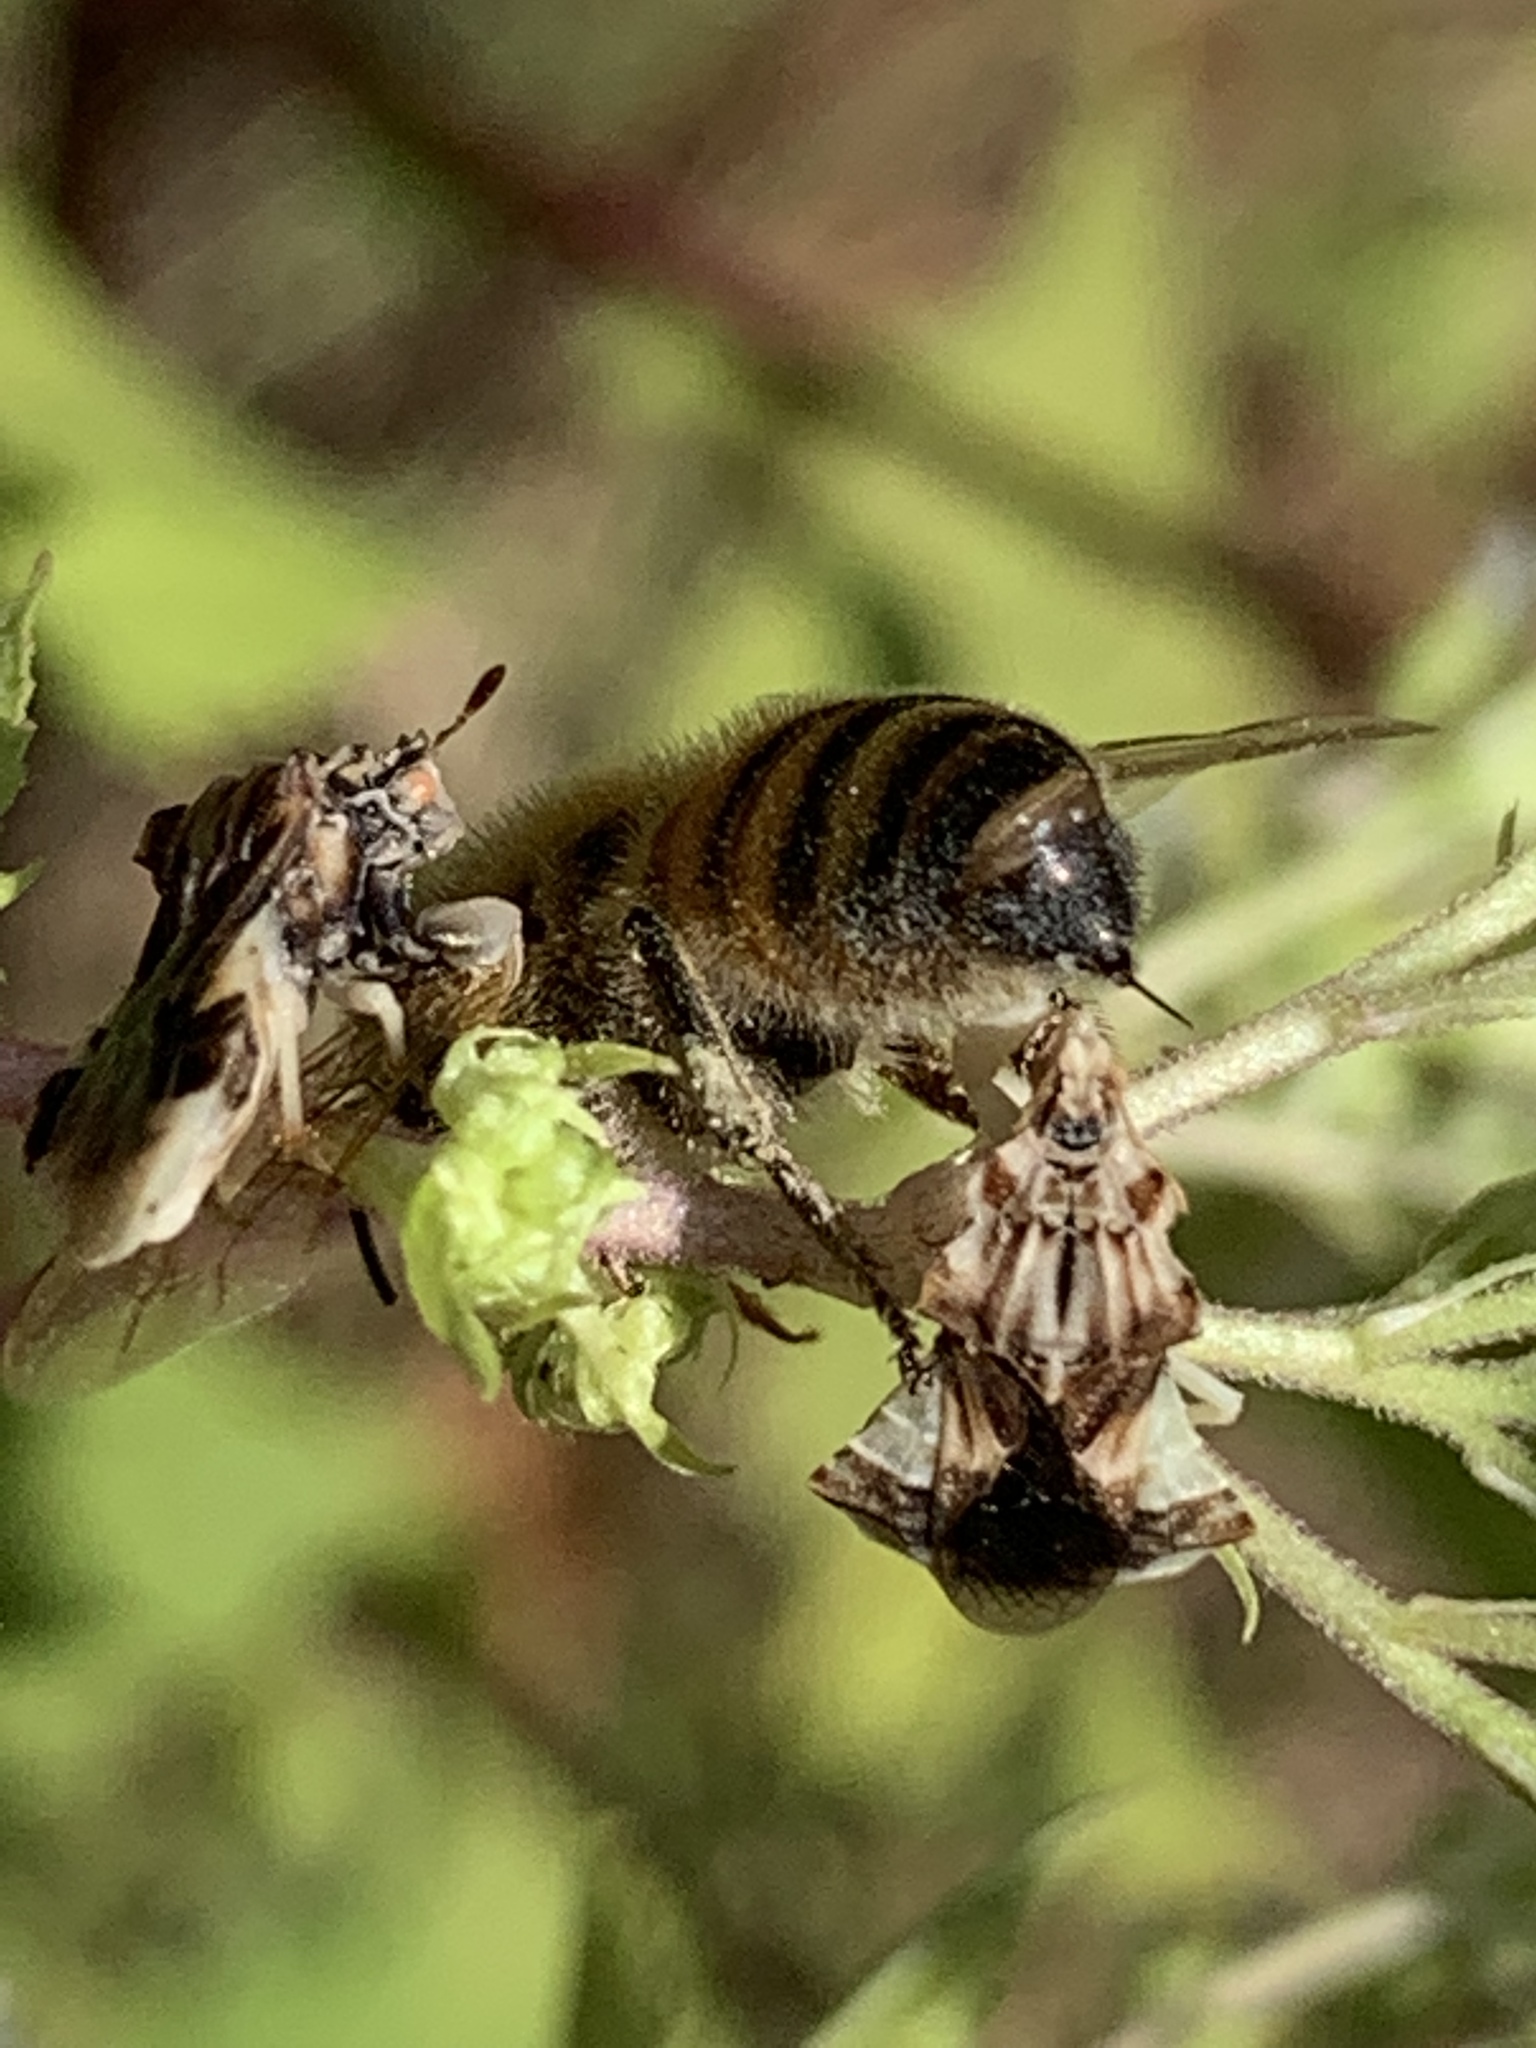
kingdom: Animalia
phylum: Arthropoda
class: Insecta
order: Hemiptera
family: Reduviidae
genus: Phymata
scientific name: Phymata fasciata
